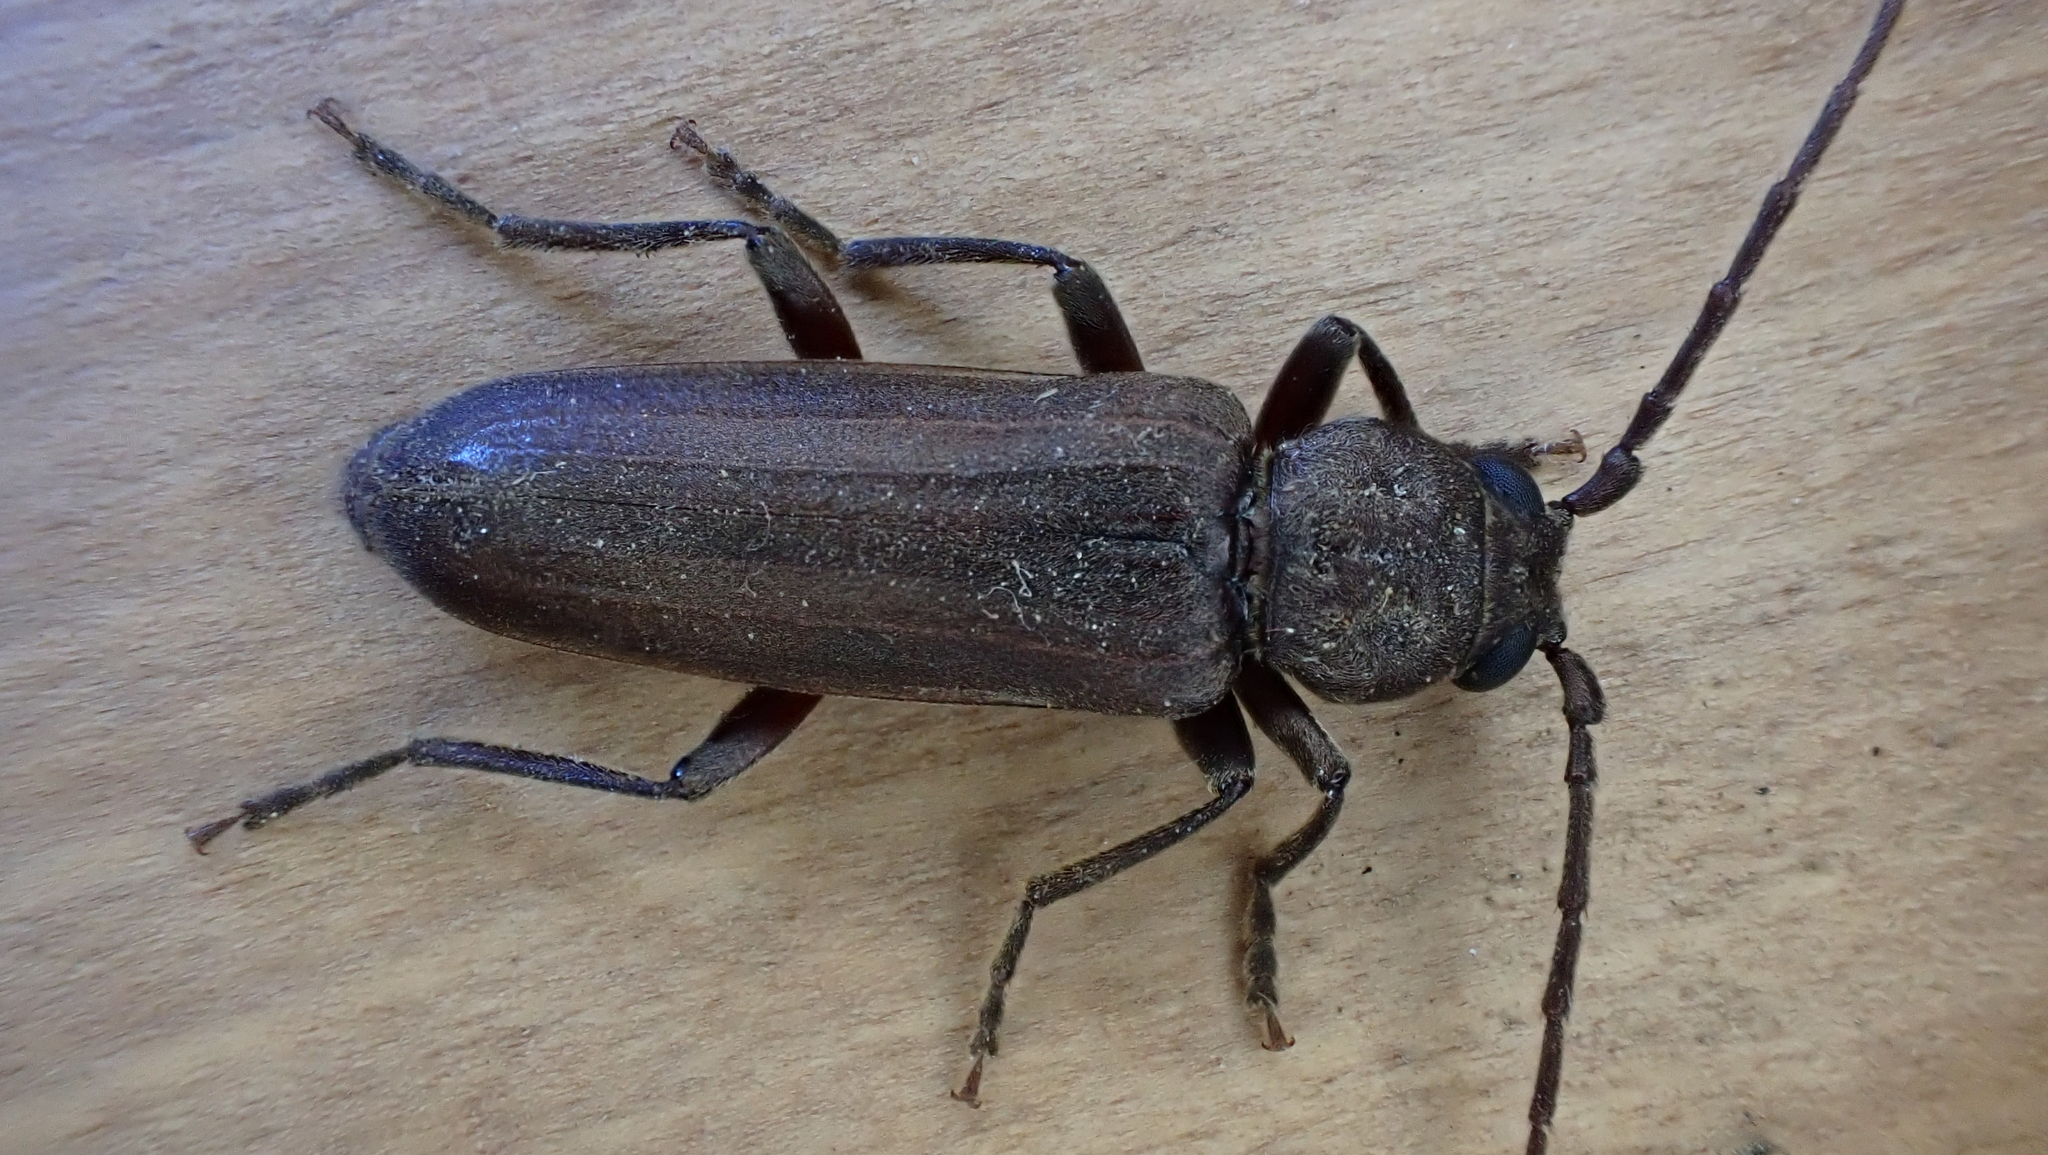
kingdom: Animalia
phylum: Arthropoda
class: Insecta
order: Coleoptera
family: Cerambycidae
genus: Arhopalus
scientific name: Arhopalus ferus
